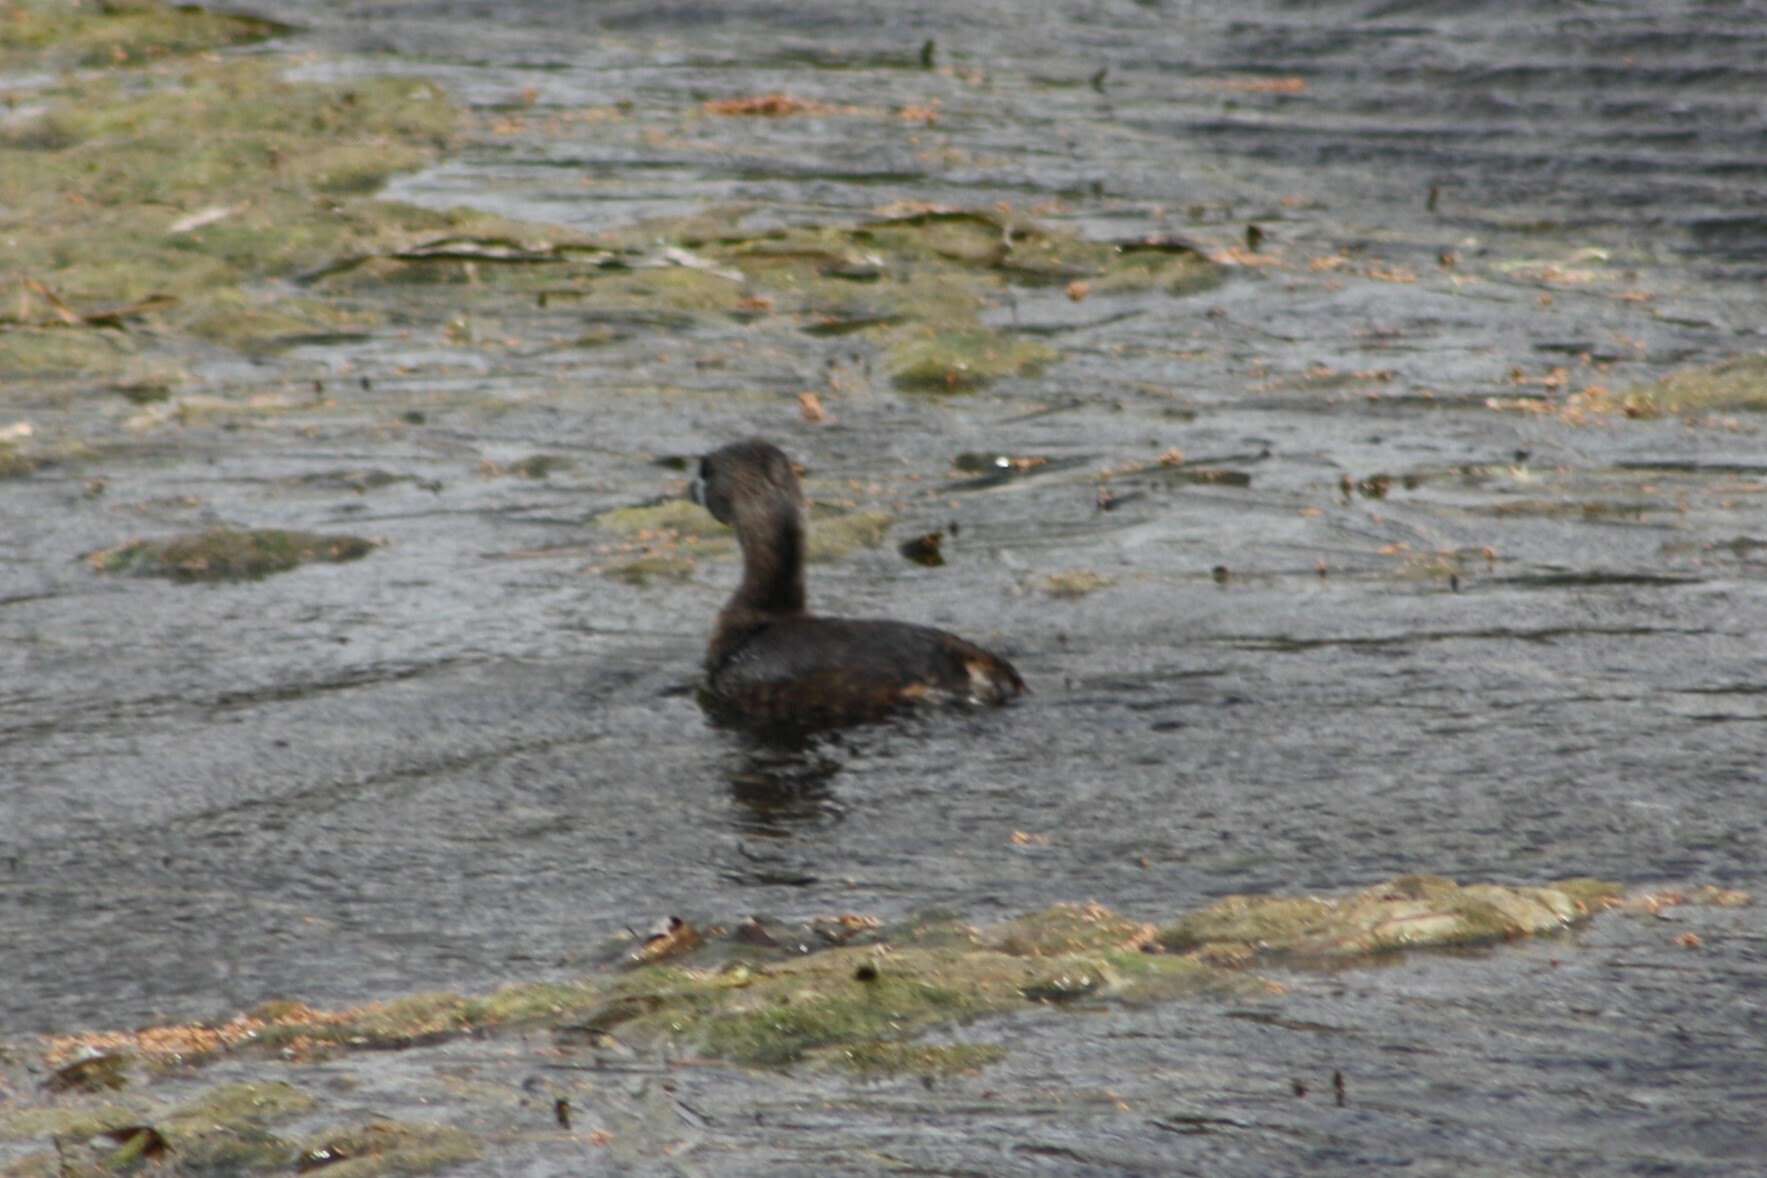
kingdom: Animalia
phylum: Chordata
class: Aves
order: Podicipediformes
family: Podicipedidae
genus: Podilymbus
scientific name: Podilymbus podiceps
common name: Pied-billed grebe
